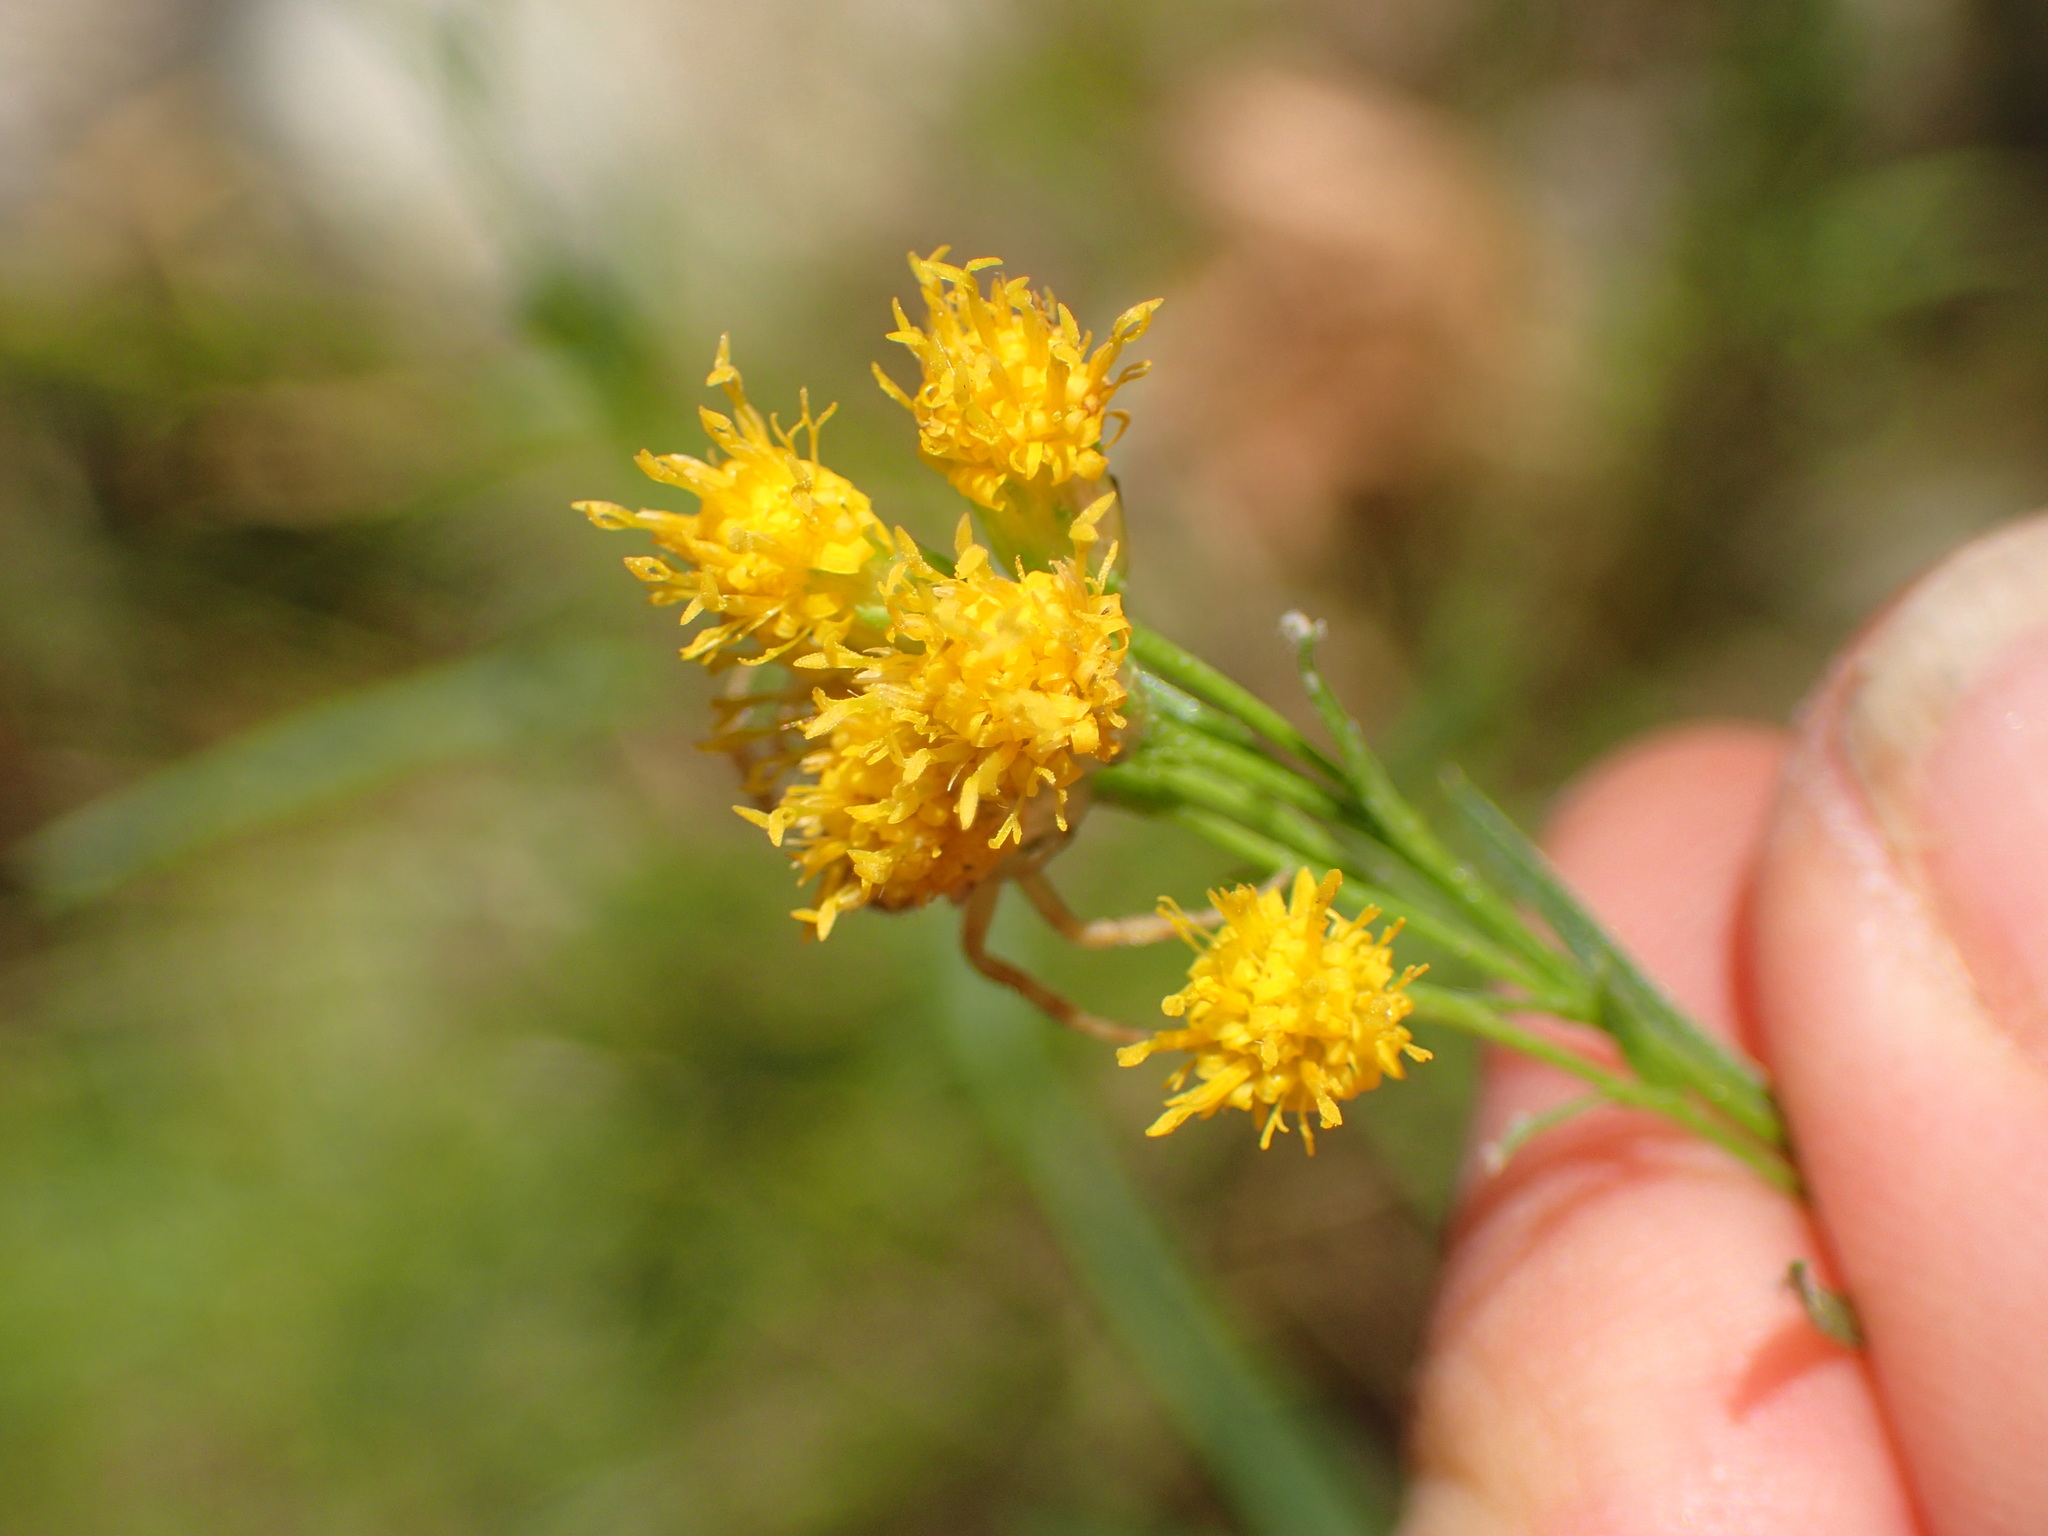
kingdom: Plantae
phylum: Tracheophyta
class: Magnoliopsida
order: Asterales
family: Asteraceae
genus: Euthamia
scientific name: Euthamia occidentalis
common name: Western goldentop
